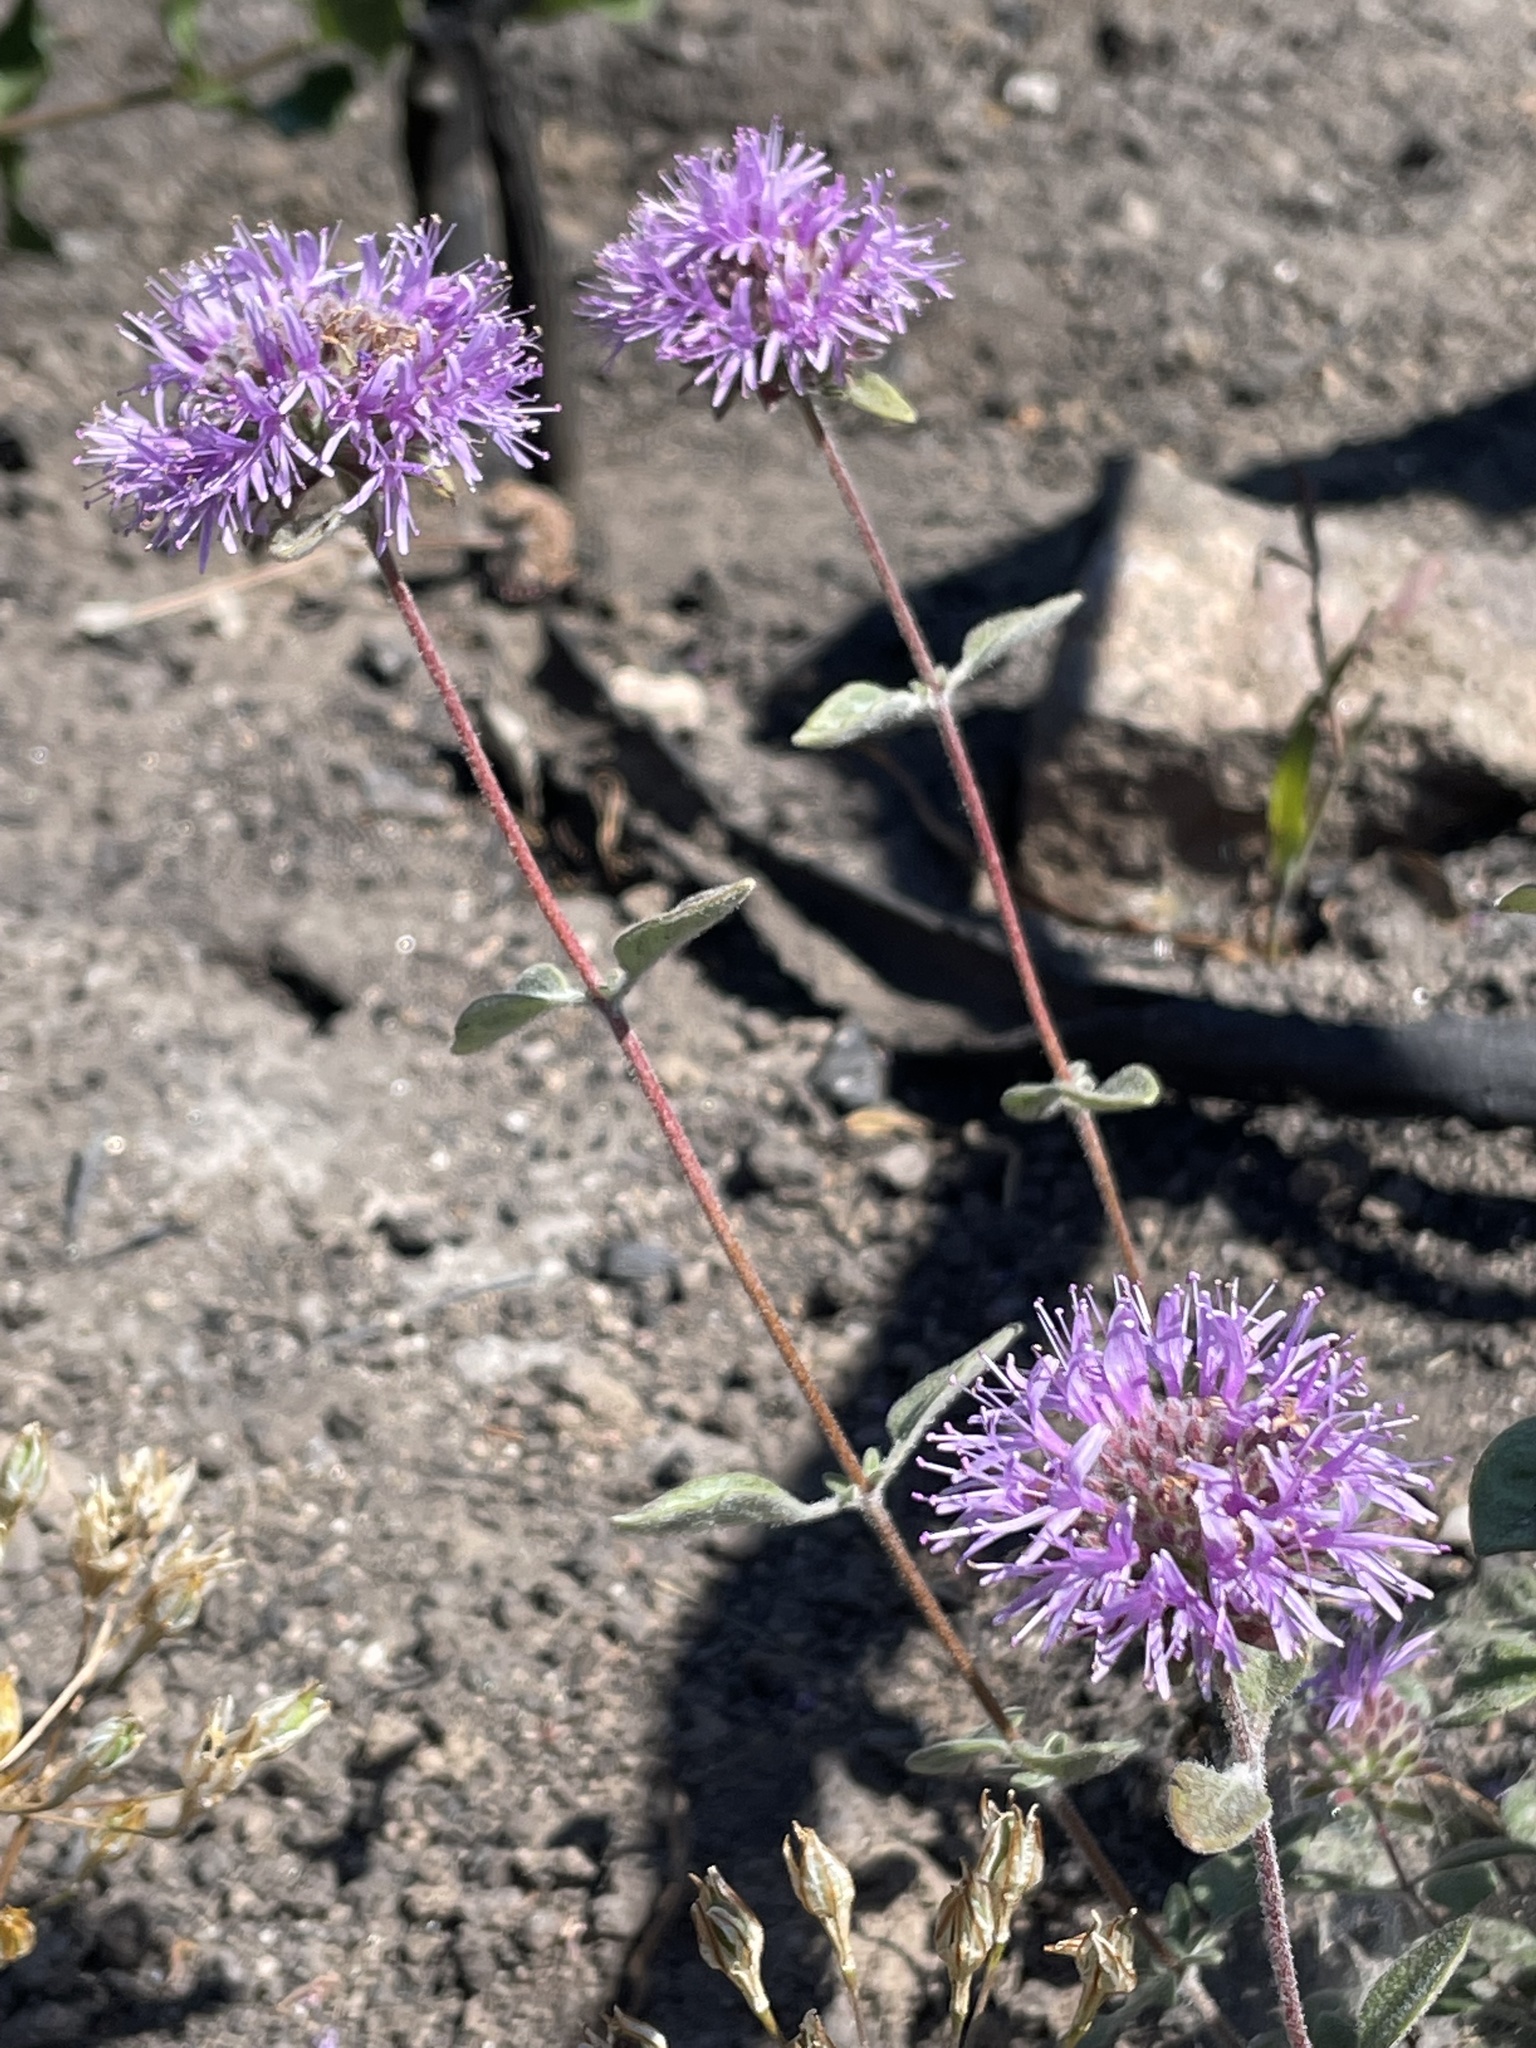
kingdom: Plantae
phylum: Tracheophyta
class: Magnoliopsida
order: Lamiales
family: Lamiaceae
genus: Monardella
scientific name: Monardella odoratissima
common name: Pacific monardella
